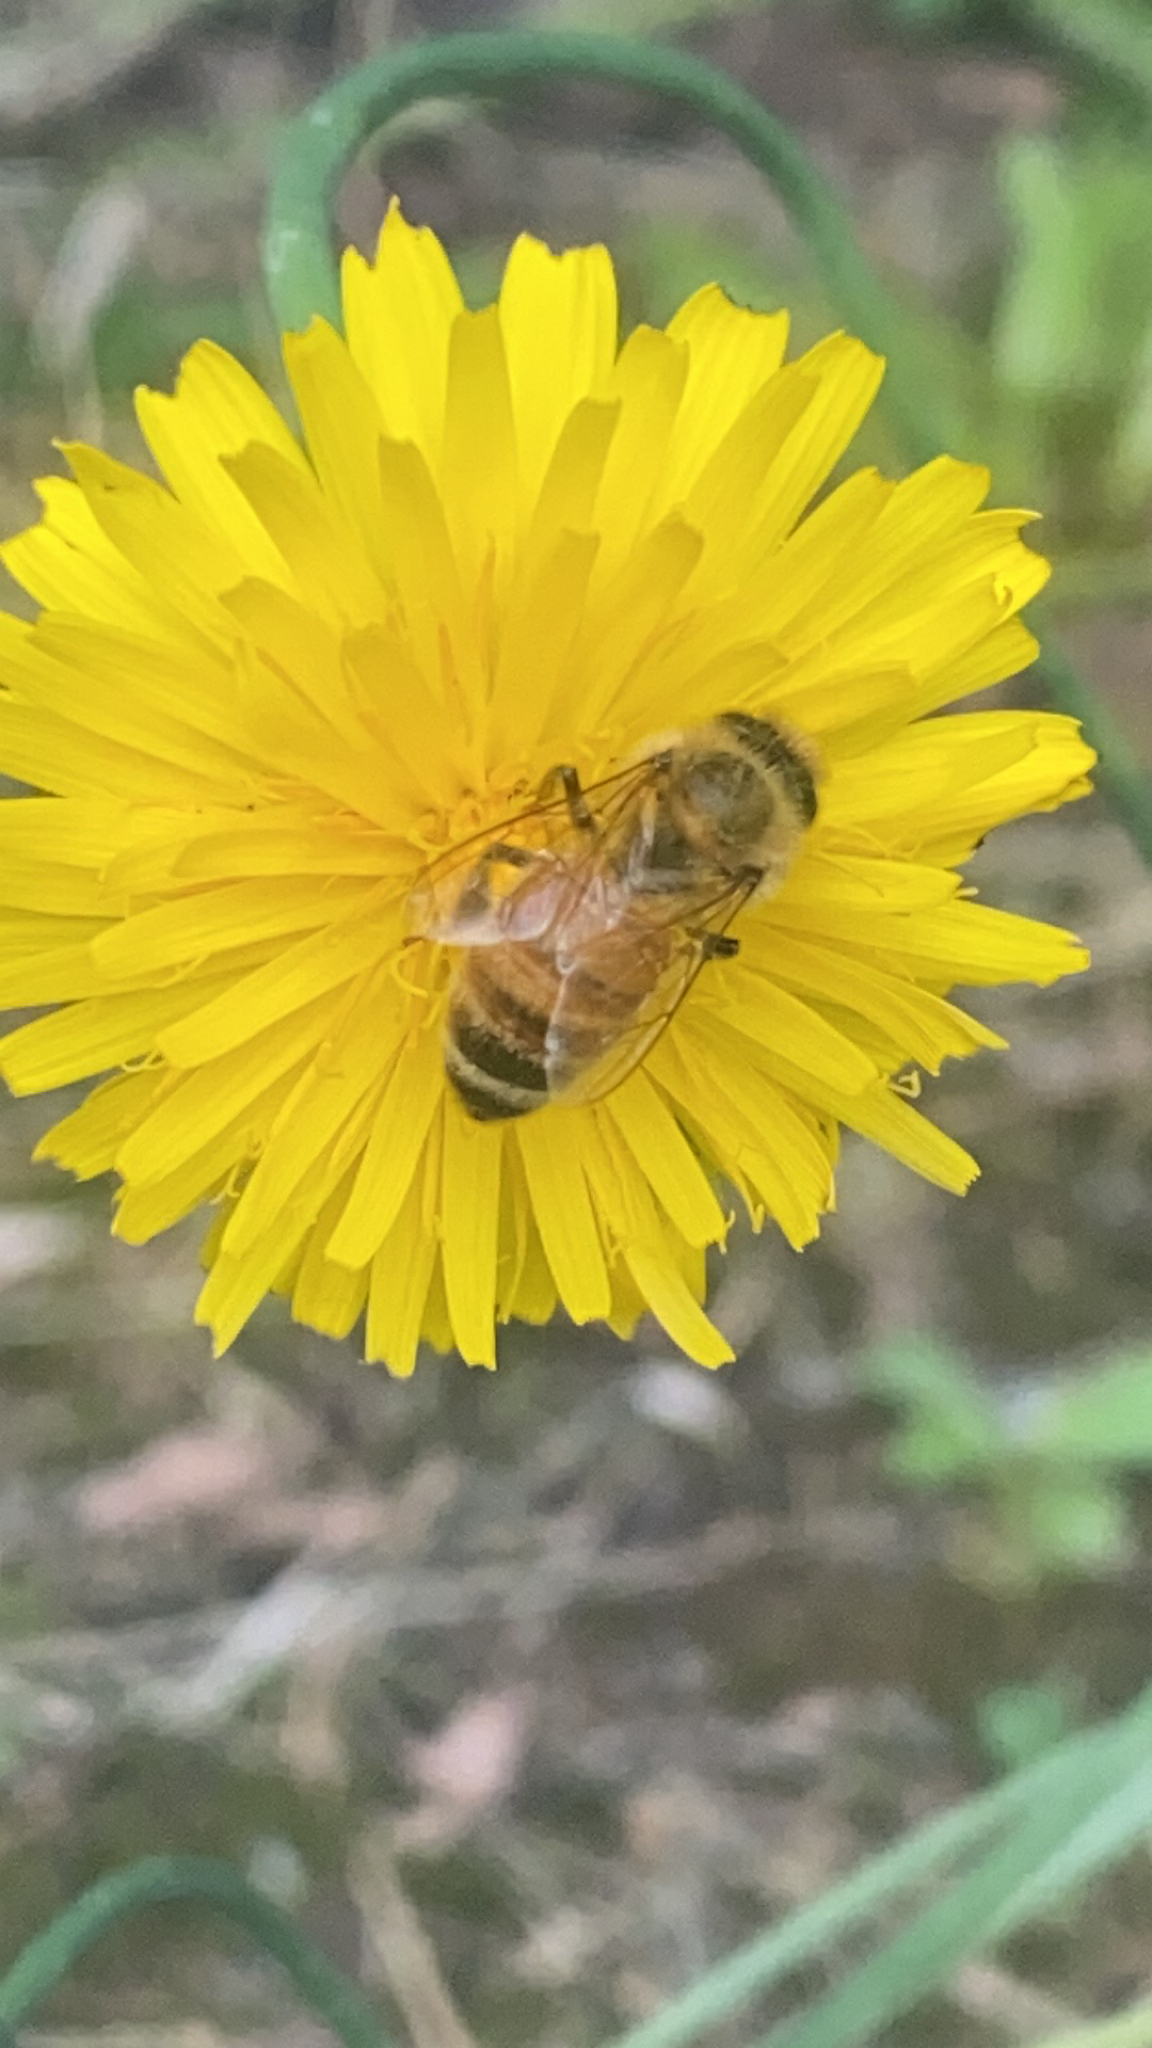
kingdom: Animalia
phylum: Arthropoda
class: Insecta
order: Hymenoptera
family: Apidae
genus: Apis
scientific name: Apis mellifera
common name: Honey bee
